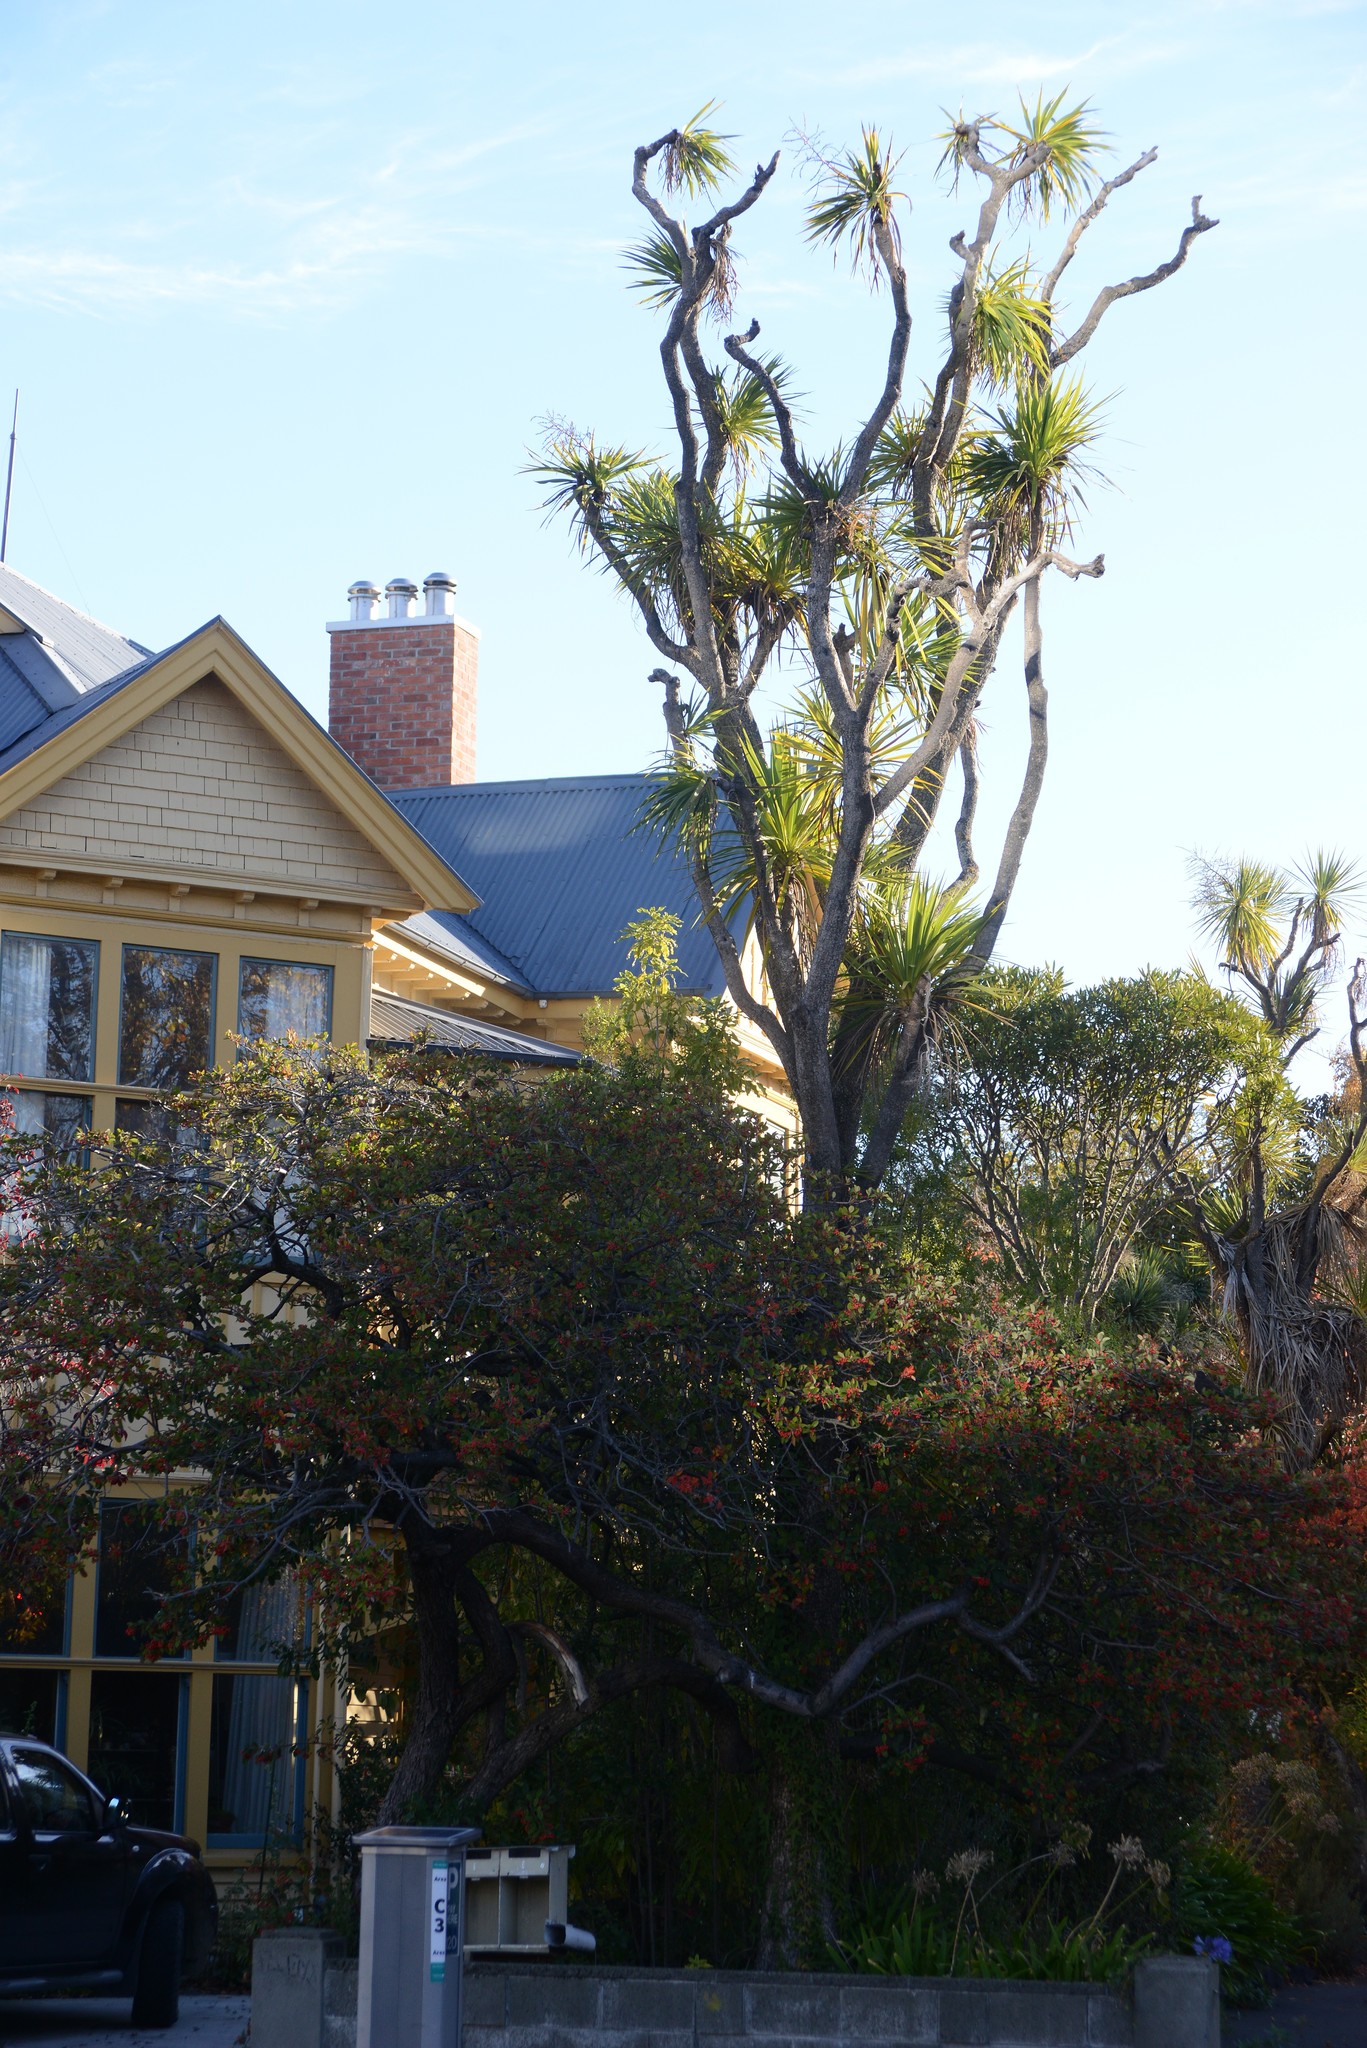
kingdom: Plantae
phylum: Tracheophyta
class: Liliopsida
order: Asparagales
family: Asparagaceae
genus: Cordyline
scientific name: Cordyline australis
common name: Cabbage-palm
